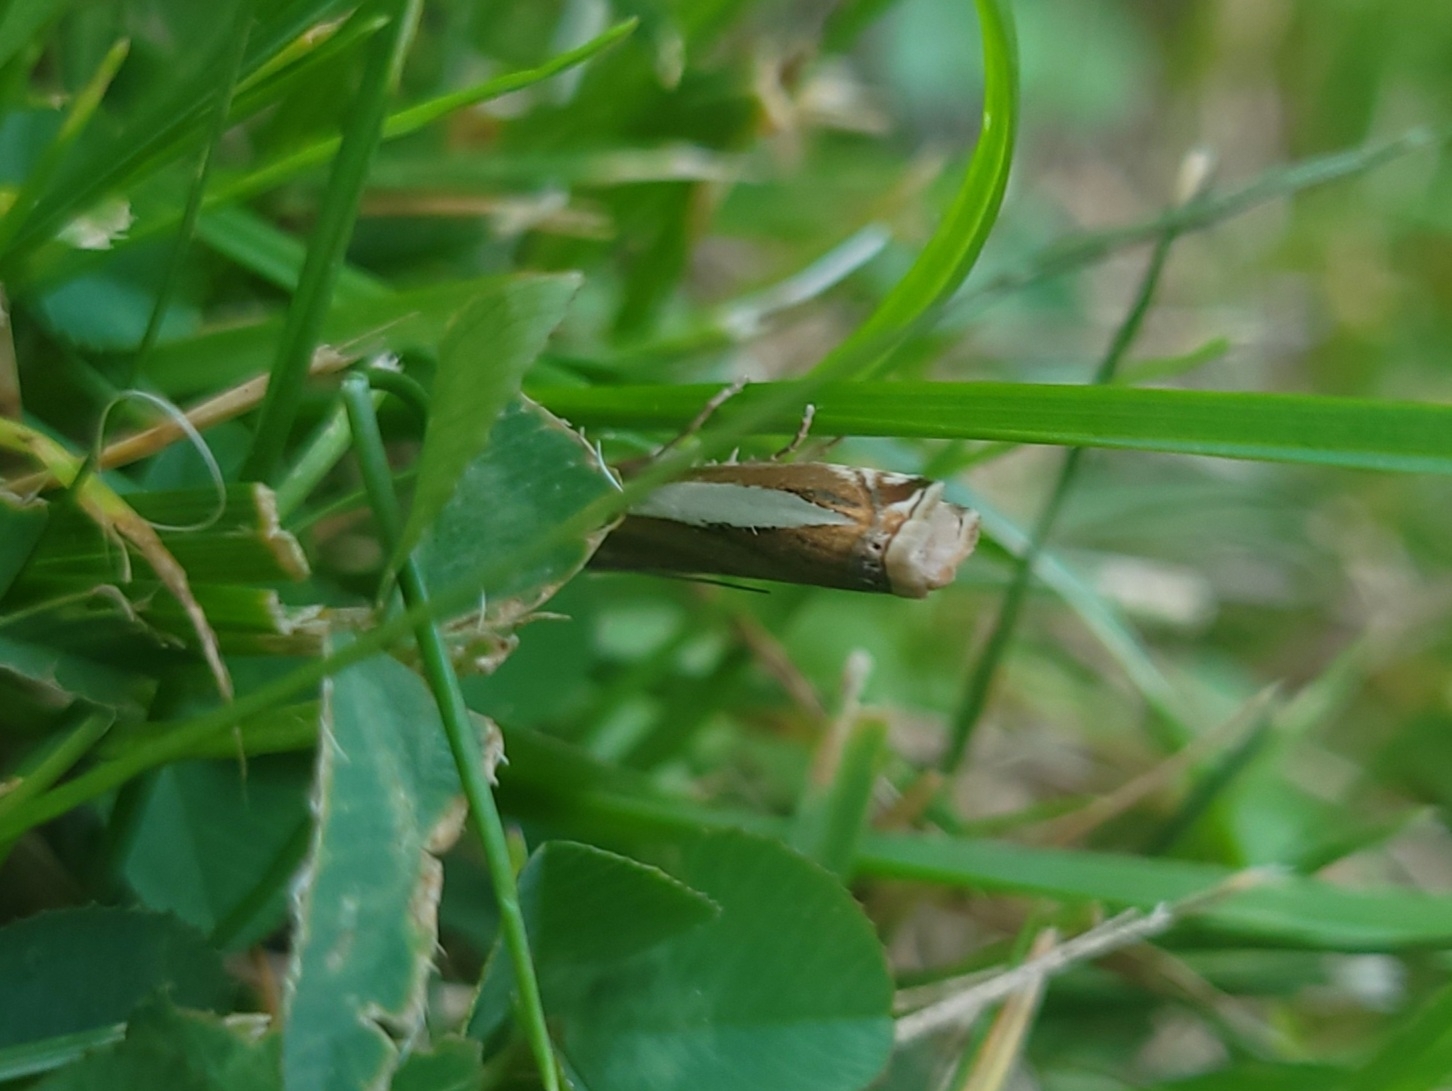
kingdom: Animalia
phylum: Arthropoda
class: Insecta
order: Lepidoptera
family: Crambidae
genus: Crambus
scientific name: Crambus praefectellus
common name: Common grass-veneer
